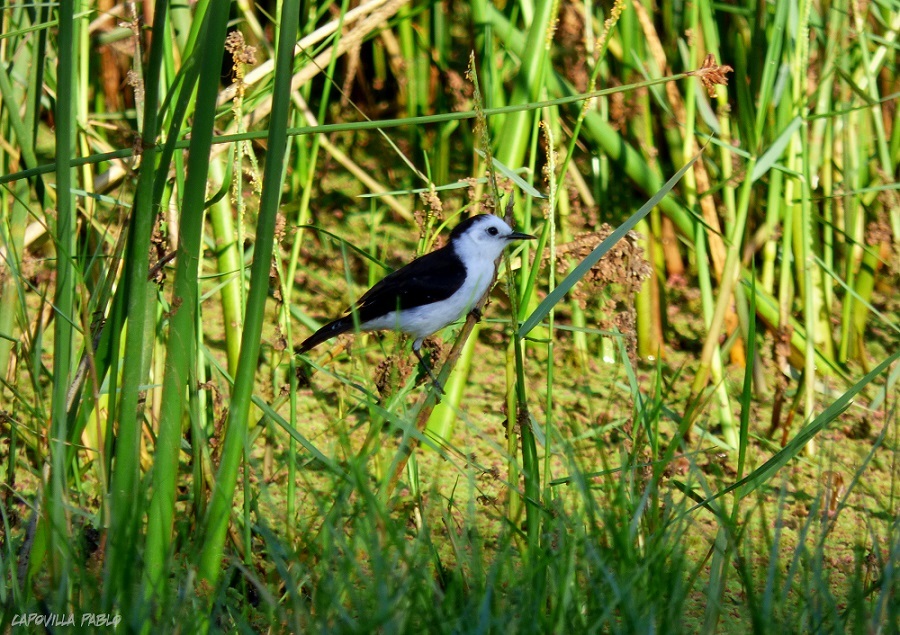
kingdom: Animalia
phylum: Chordata
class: Aves
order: Passeriformes
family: Tyrannidae
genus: Fluvicola
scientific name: Fluvicola pica
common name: Pied water-tyrant
